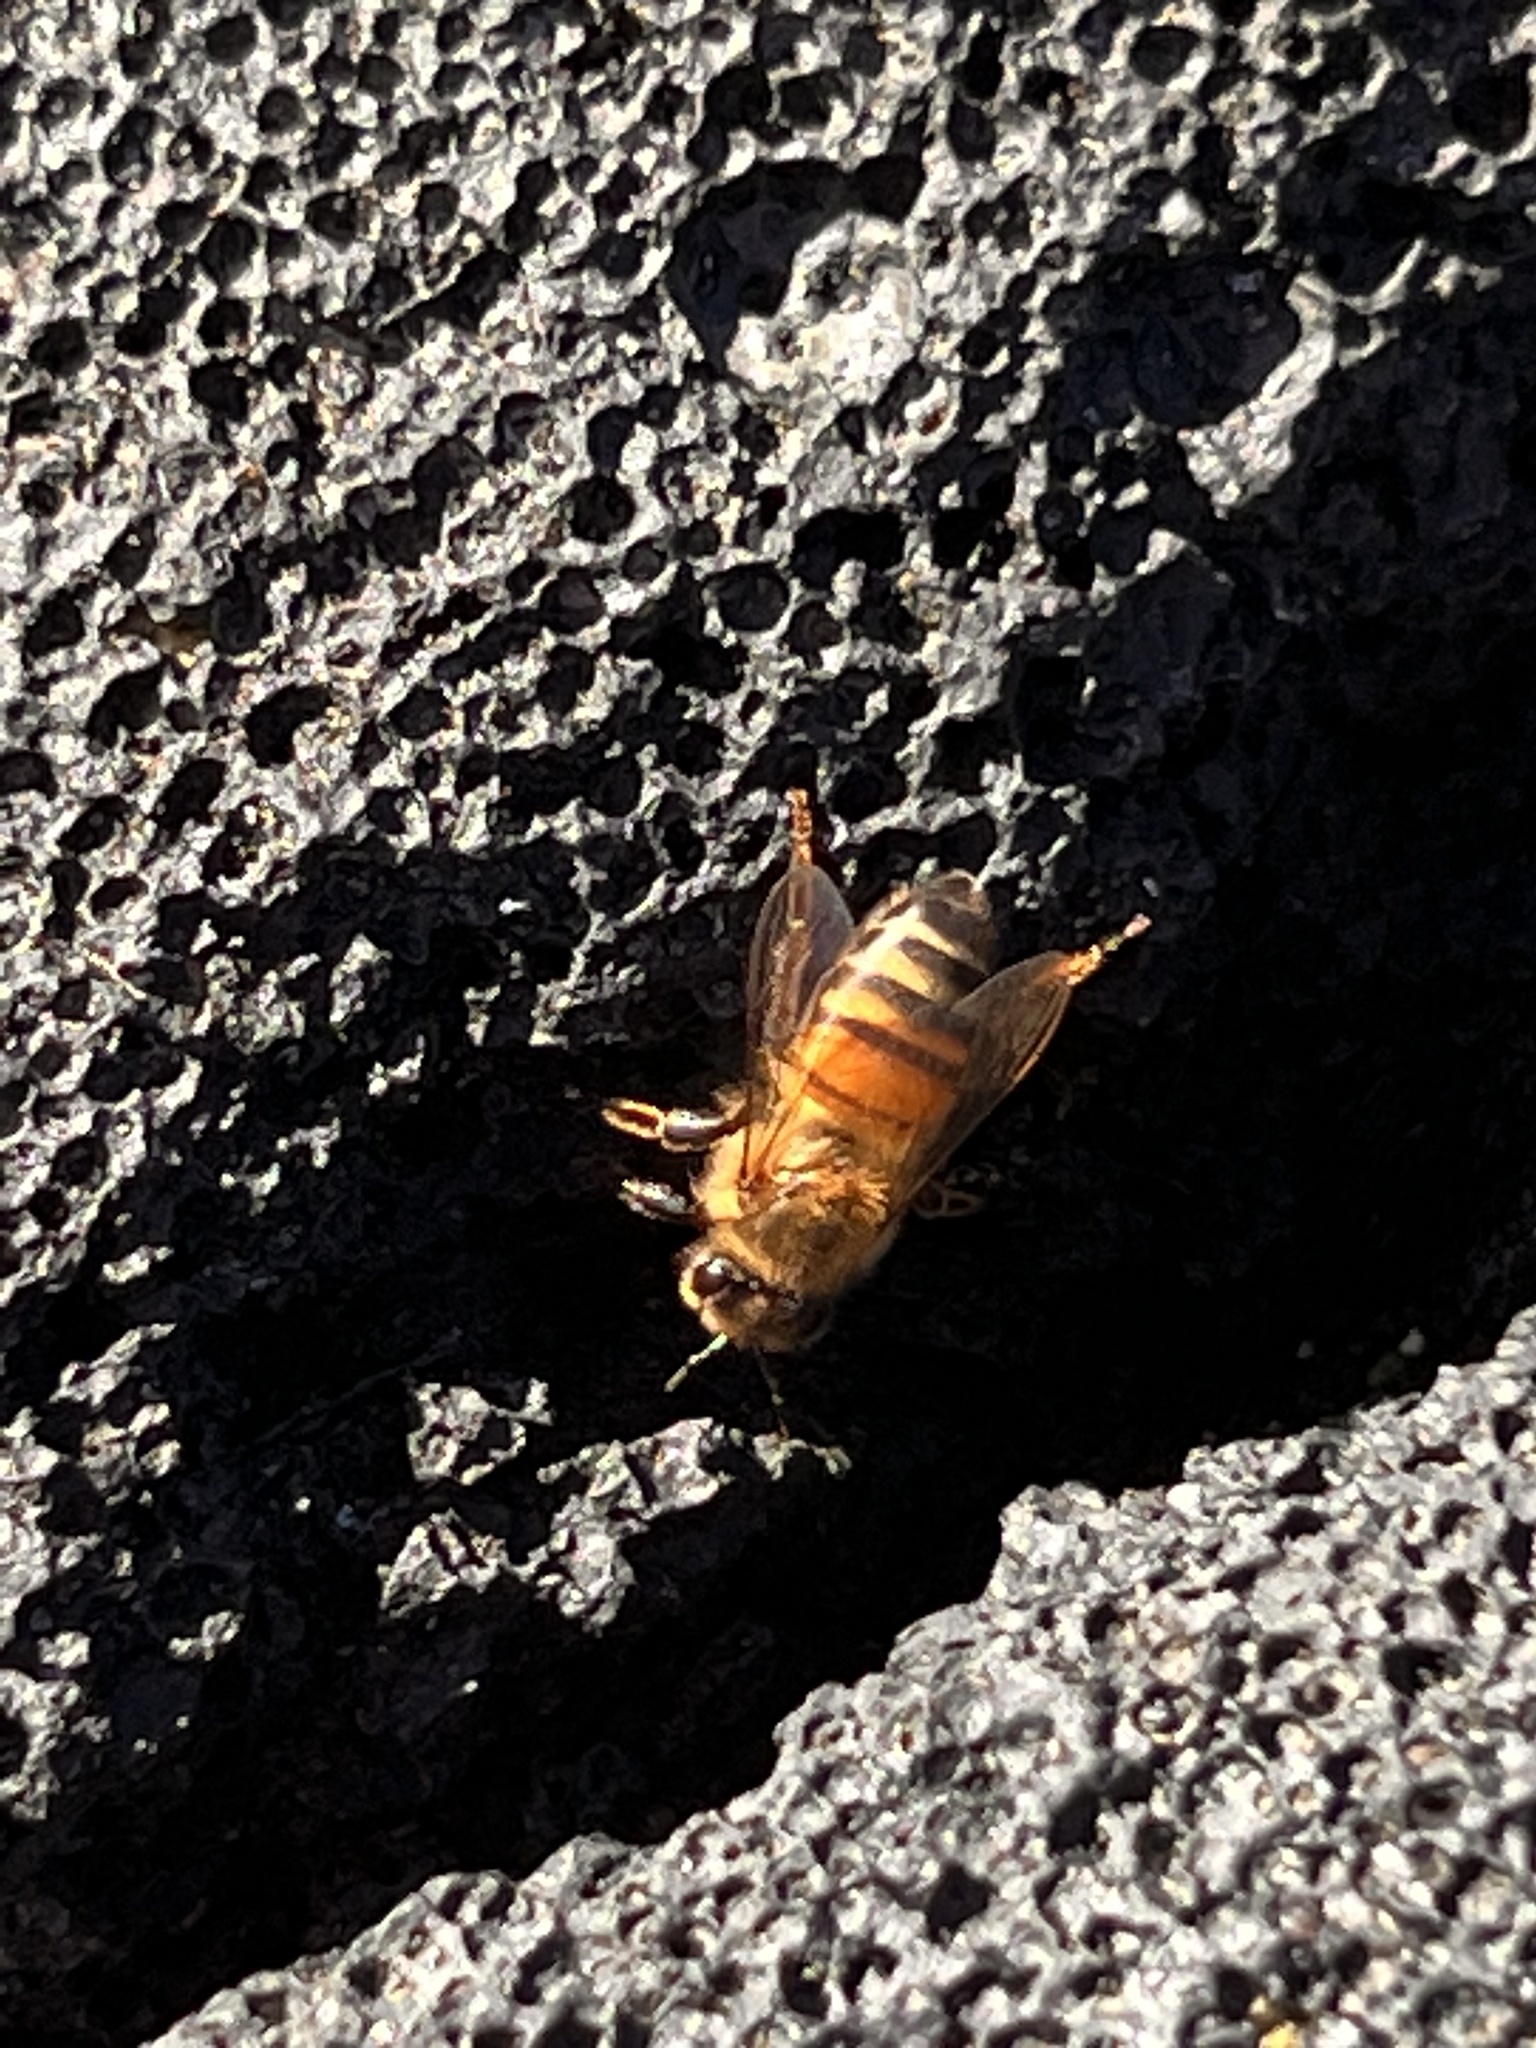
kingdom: Animalia
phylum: Arthropoda
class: Insecta
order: Hymenoptera
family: Apidae
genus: Apis
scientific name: Apis mellifera
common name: Honey bee
